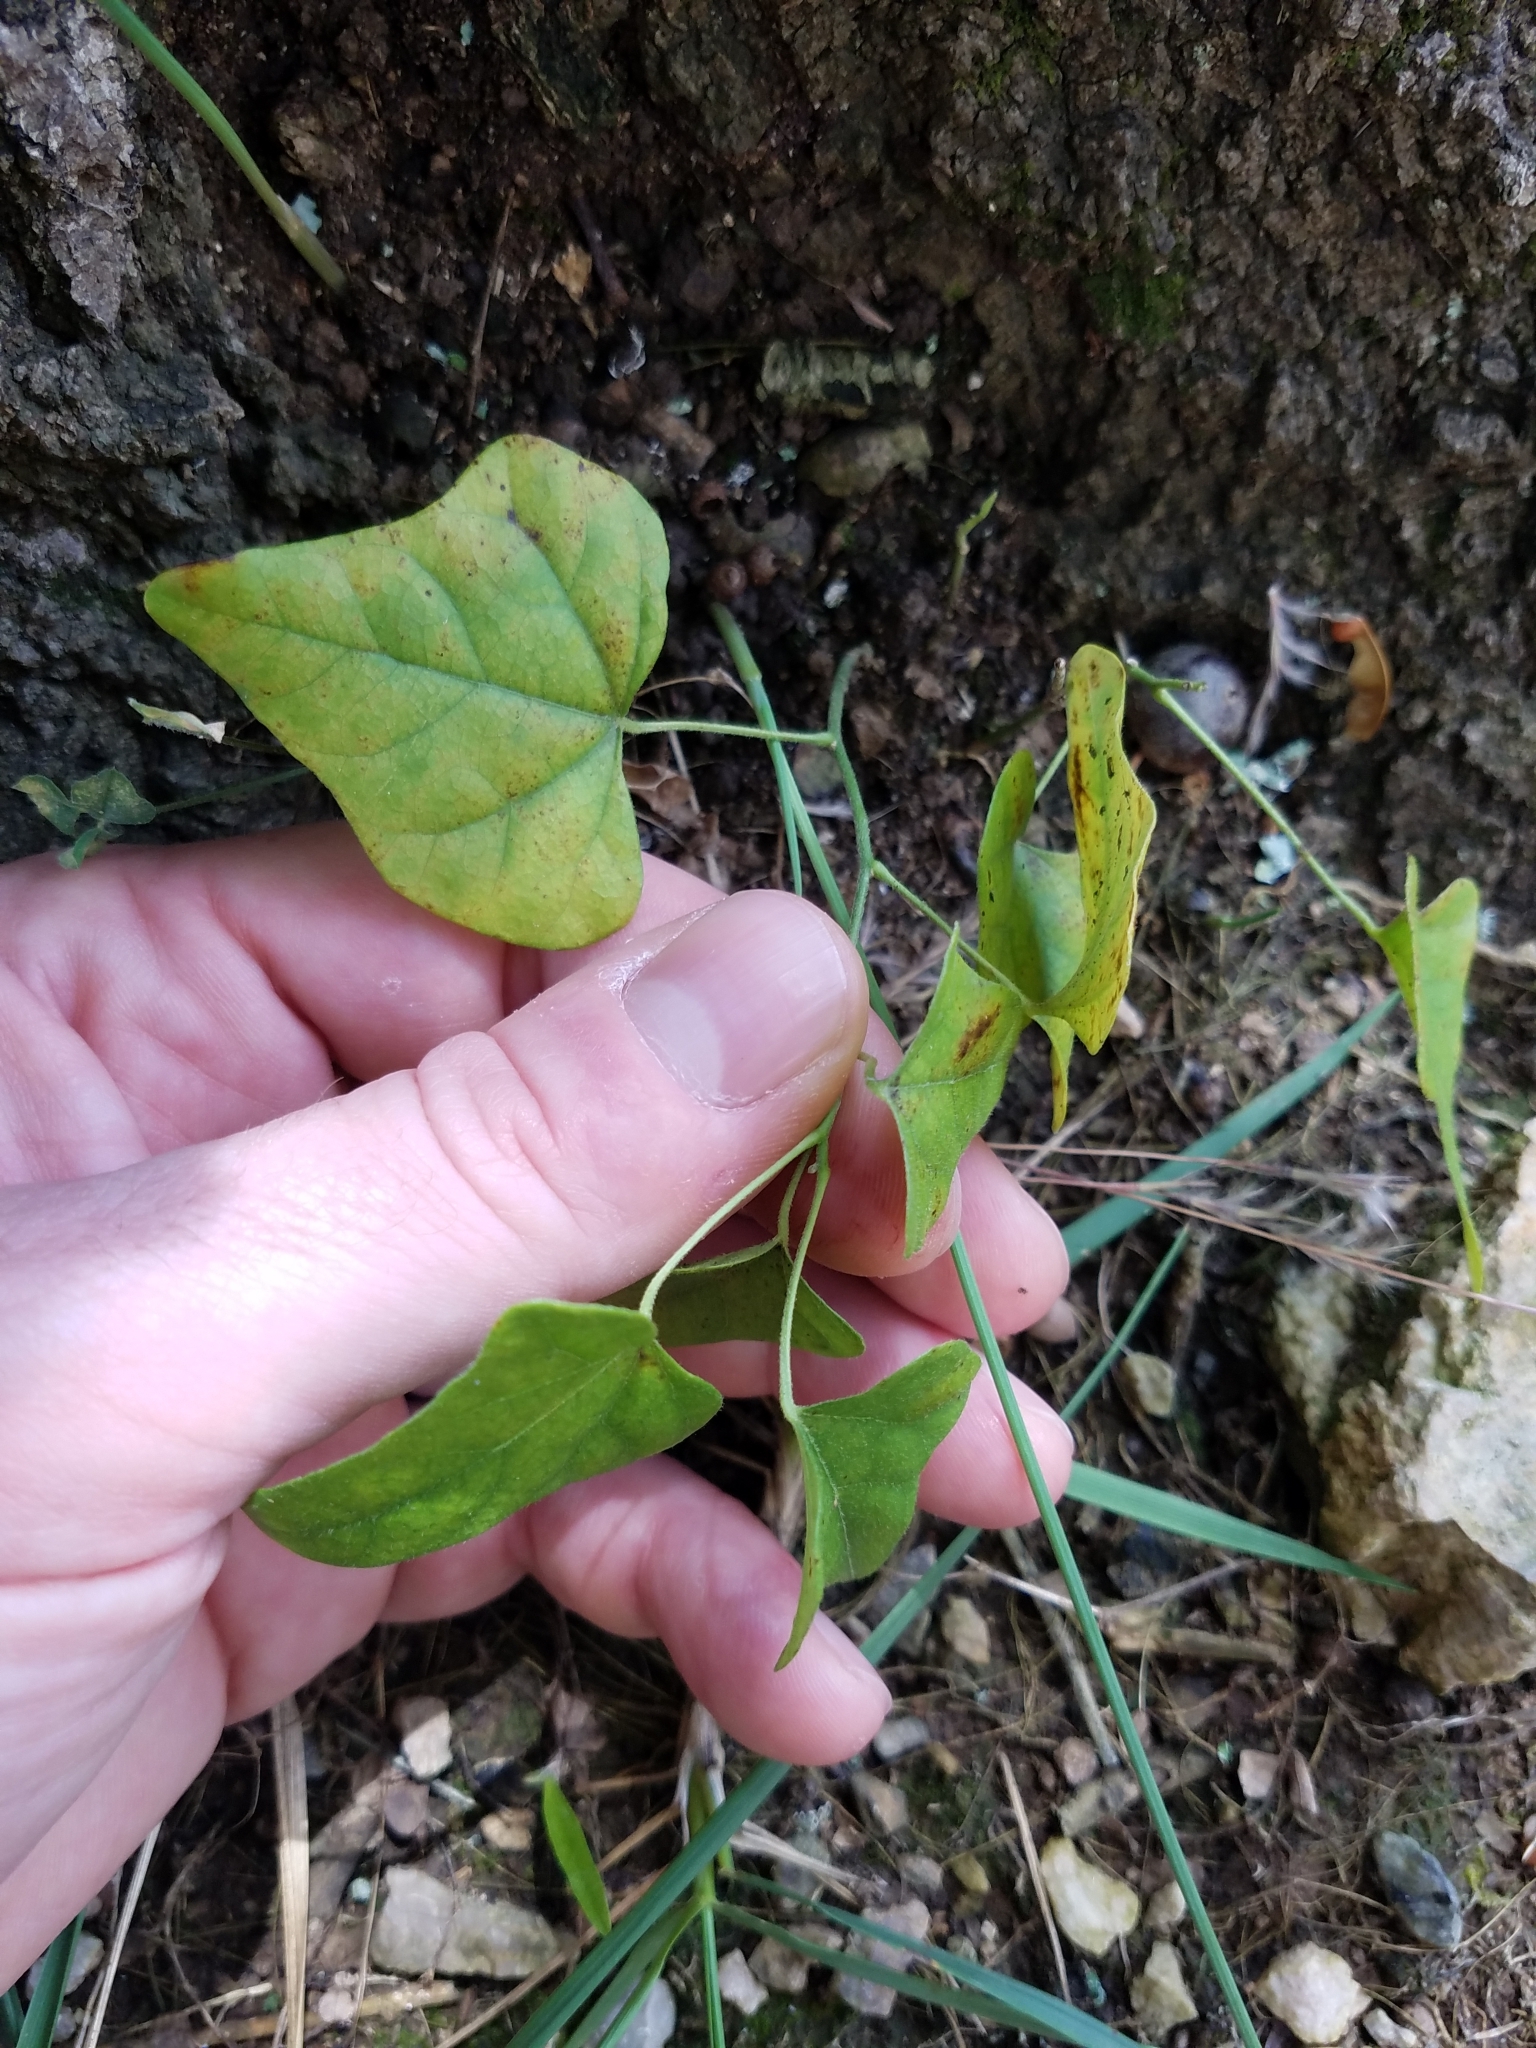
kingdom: Plantae
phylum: Tracheophyta
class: Magnoliopsida
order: Ranunculales
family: Menispermaceae
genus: Cocculus
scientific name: Cocculus carolinus
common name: Carolina moonseed
